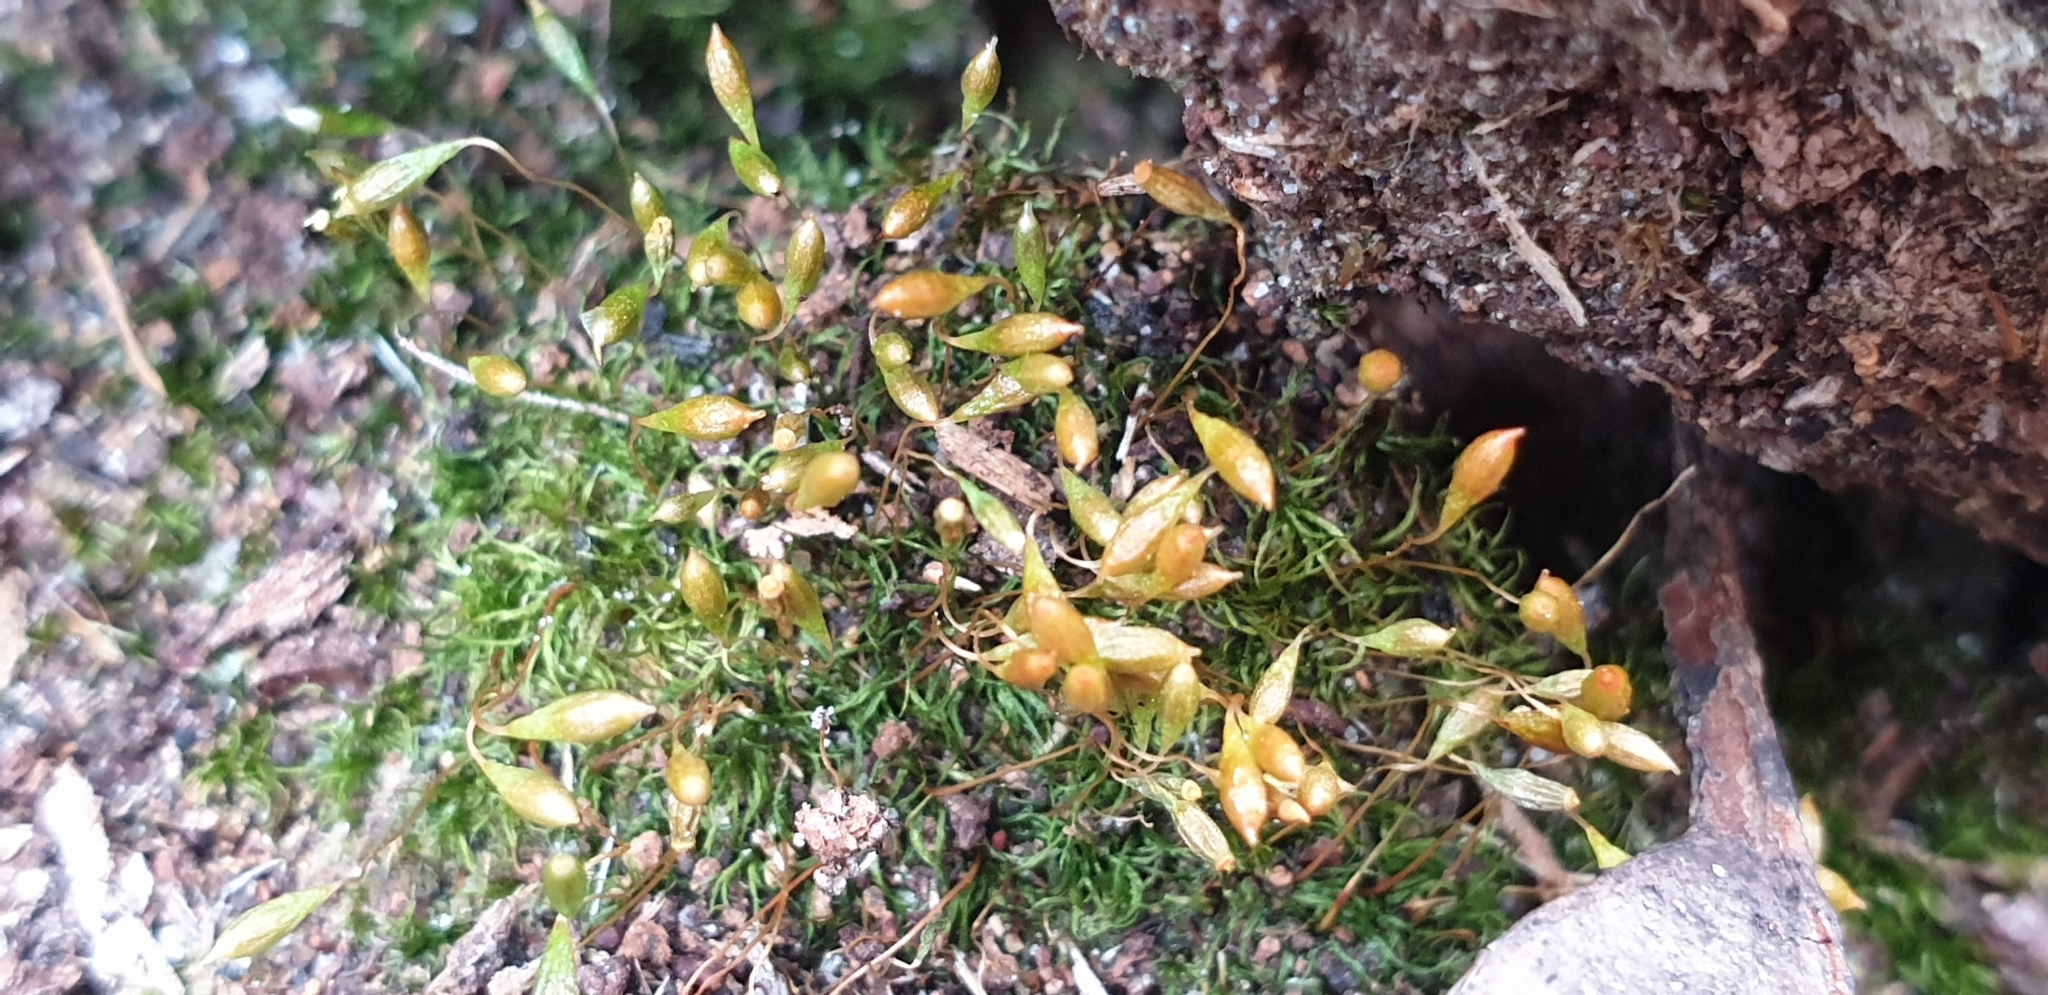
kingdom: Plantae
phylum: Bryophyta
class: Bryopsida
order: Orthodontiales
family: Orthodontiaceae
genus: Orthodontium
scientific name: Orthodontium lineare
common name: Cape thread-moss
